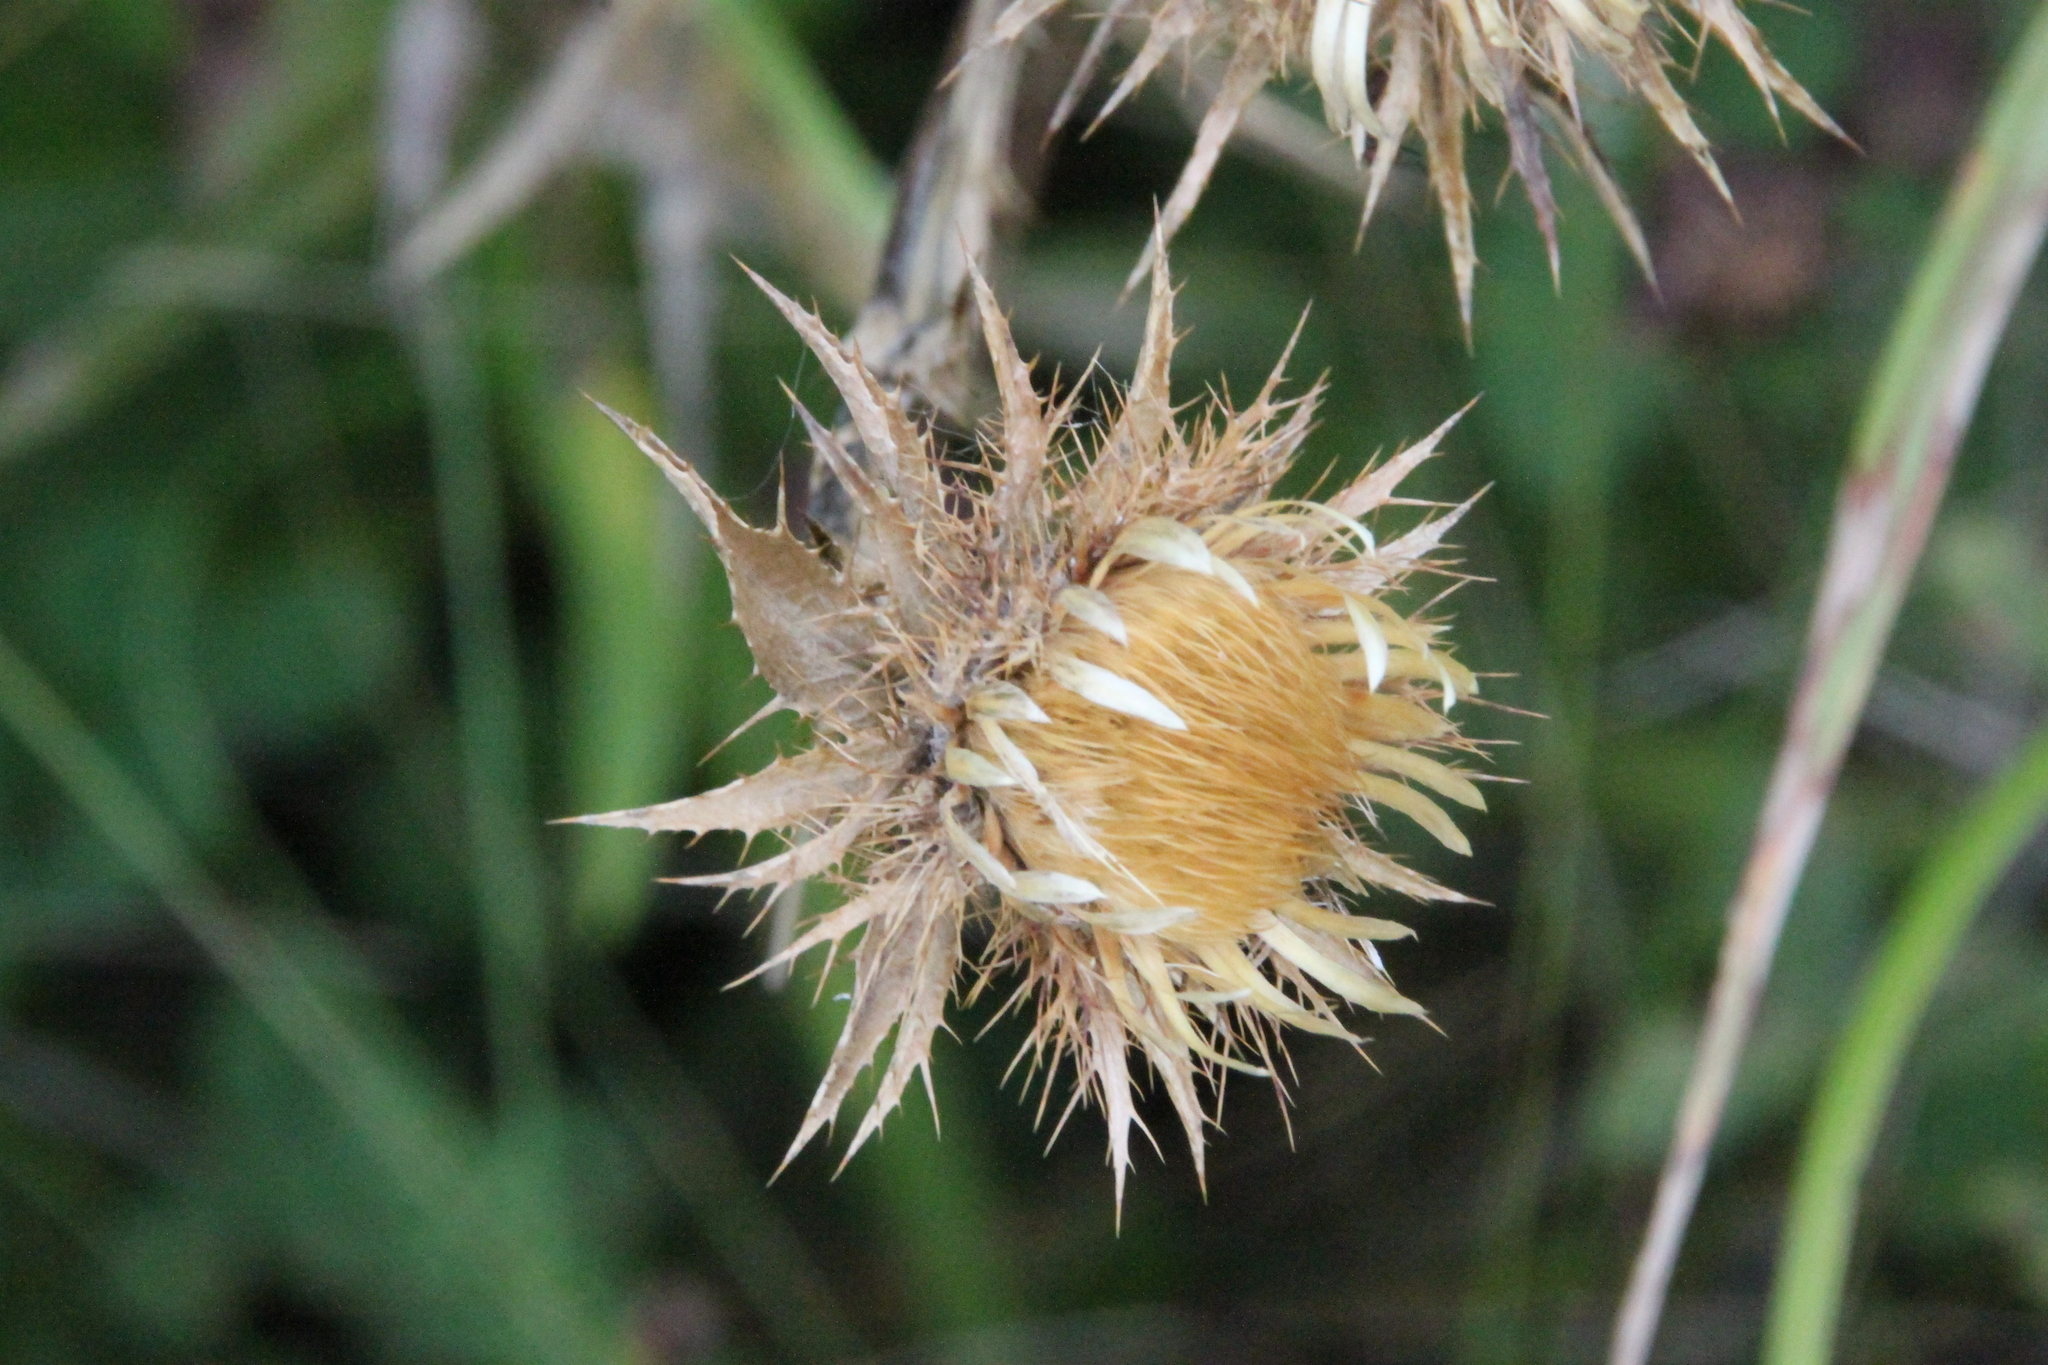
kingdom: Plantae
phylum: Tracheophyta
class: Magnoliopsida
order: Asterales
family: Asteraceae
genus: Carlina
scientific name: Carlina biebersteinii
